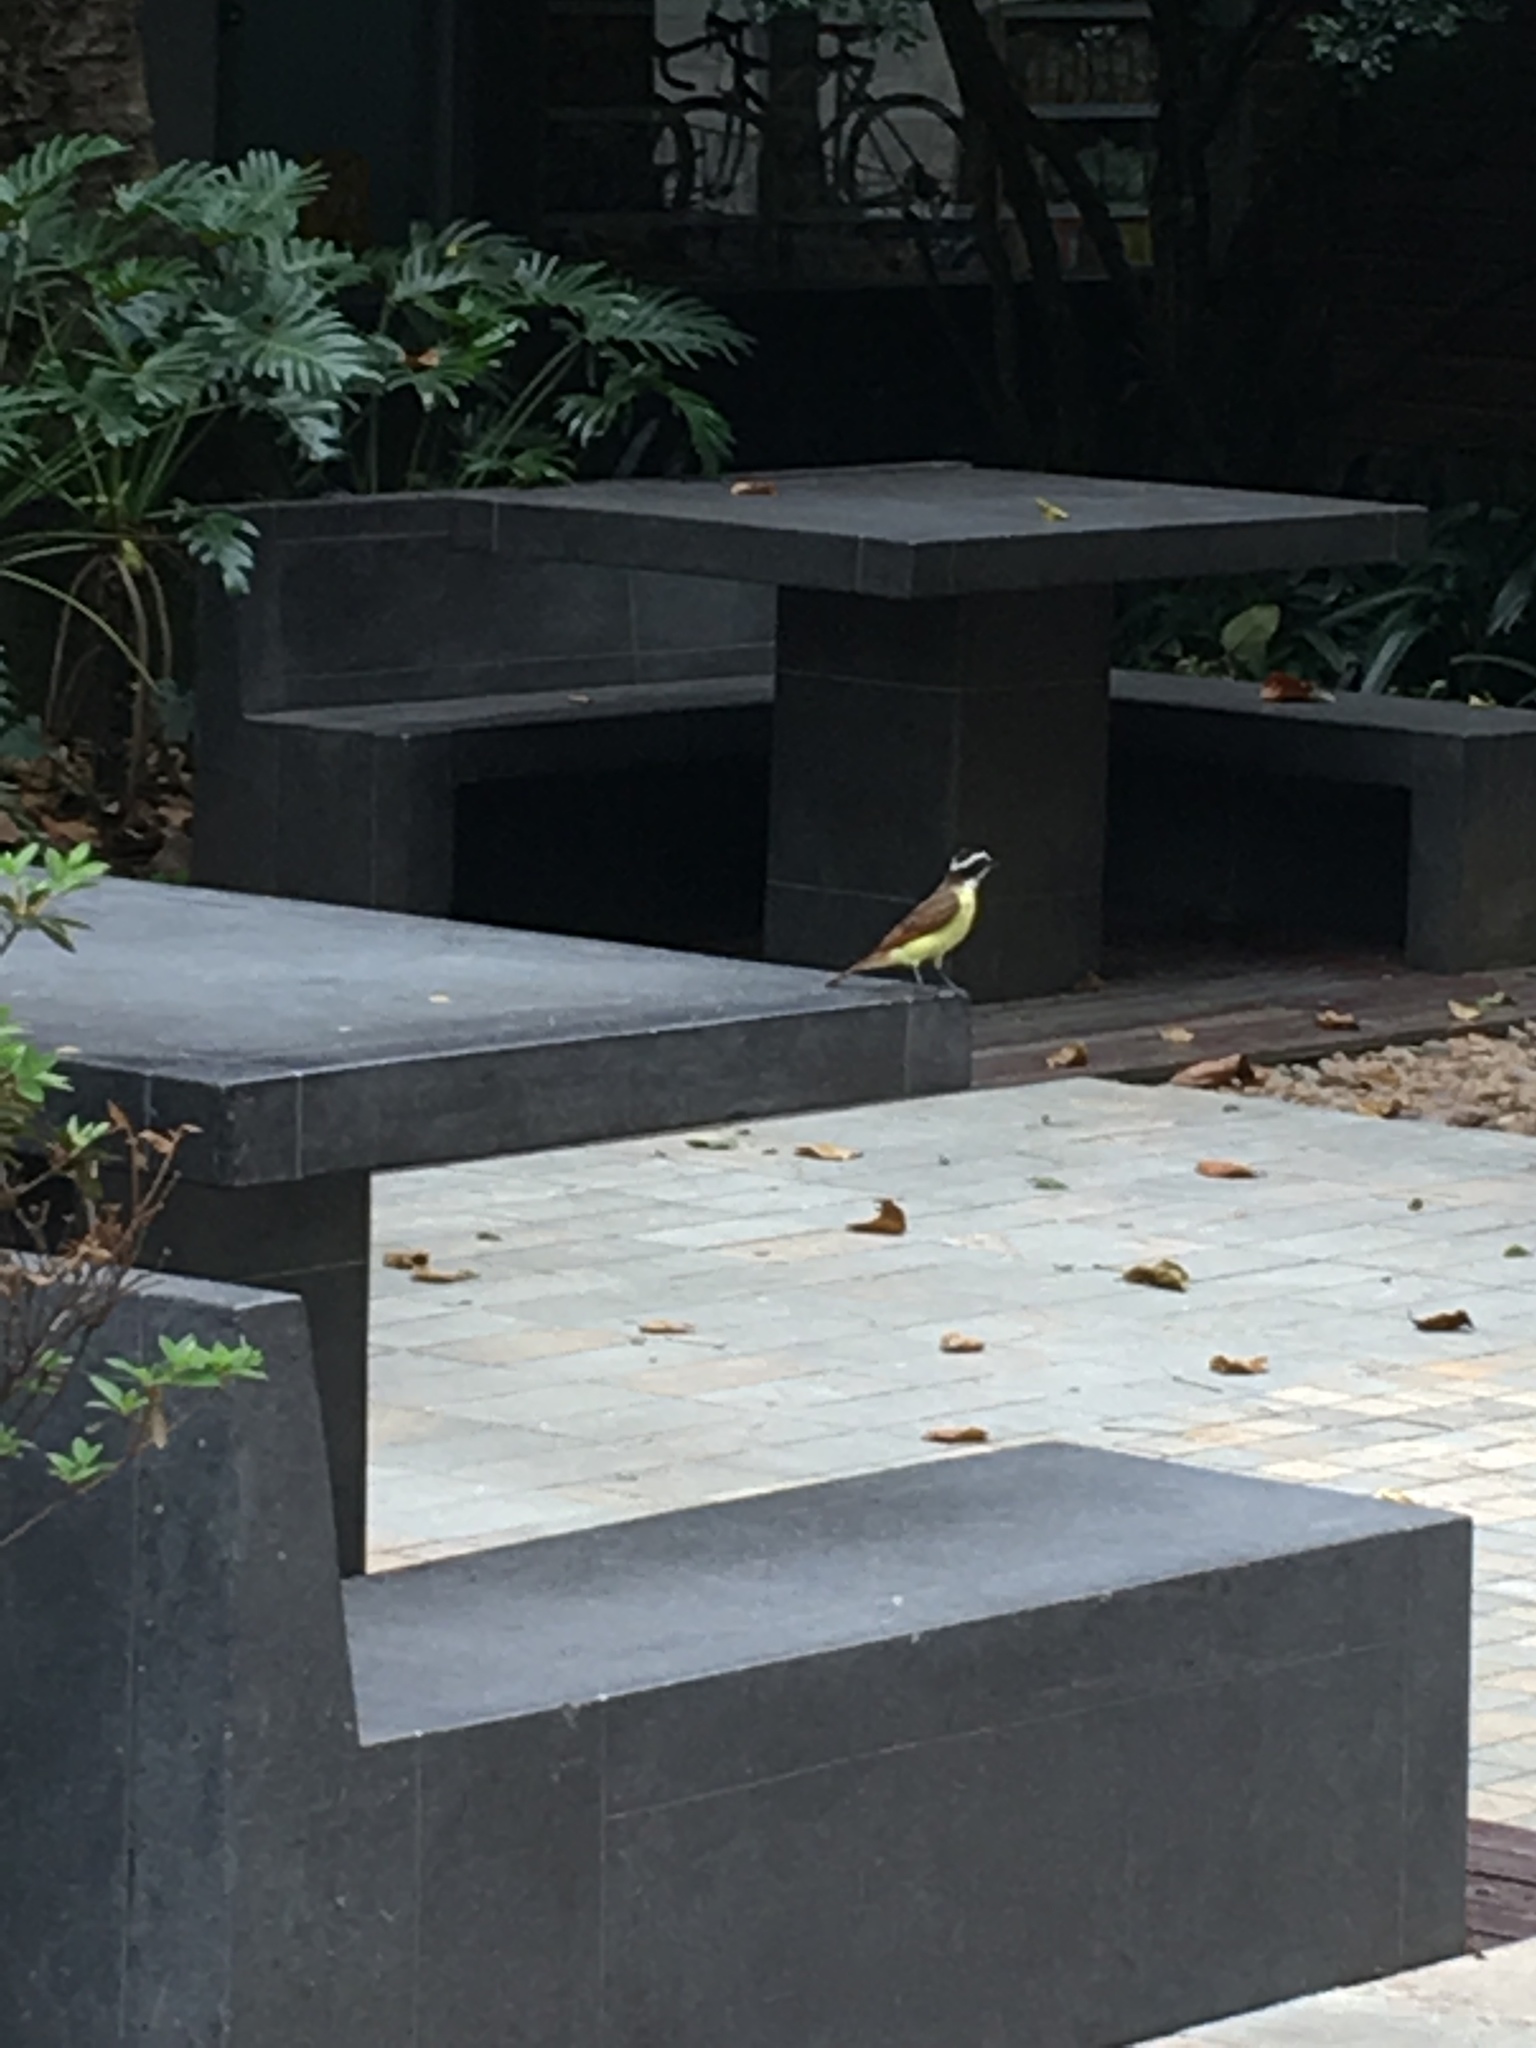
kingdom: Animalia
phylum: Chordata
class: Aves
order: Passeriformes
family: Tyrannidae
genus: Pitangus
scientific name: Pitangus sulphuratus
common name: Great kiskadee
